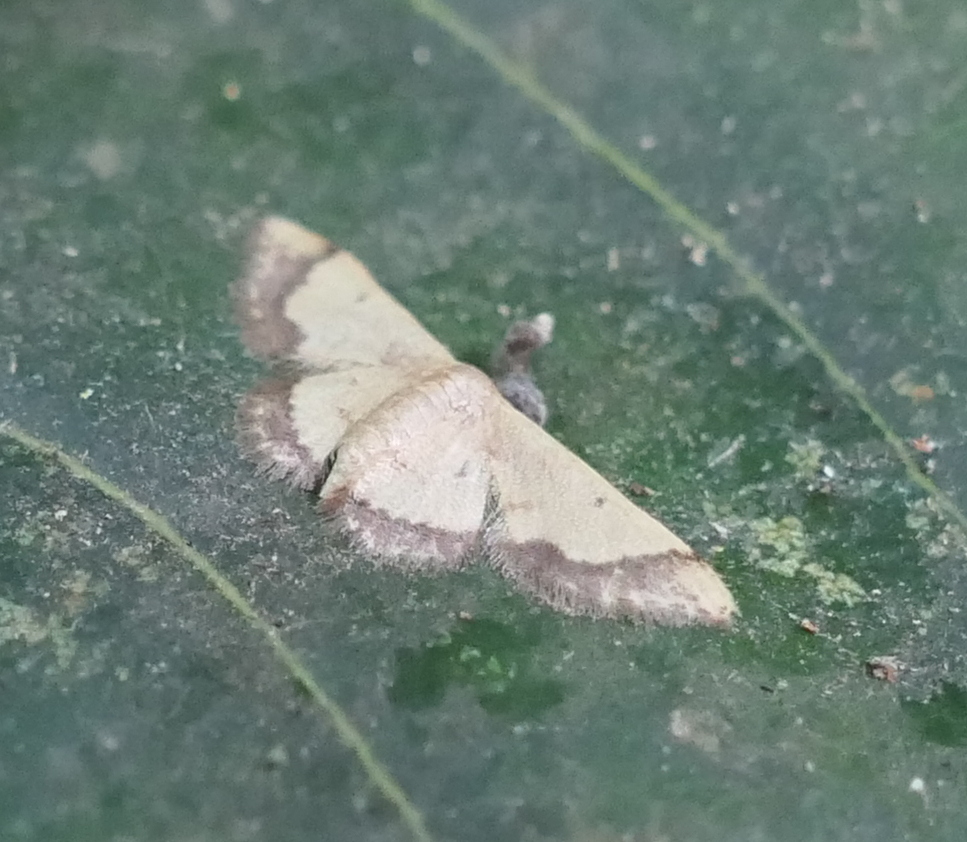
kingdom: Animalia
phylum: Arthropoda
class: Insecta
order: Lepidoptera
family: Geometridae
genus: Idaea
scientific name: Idaea arhostiodes
